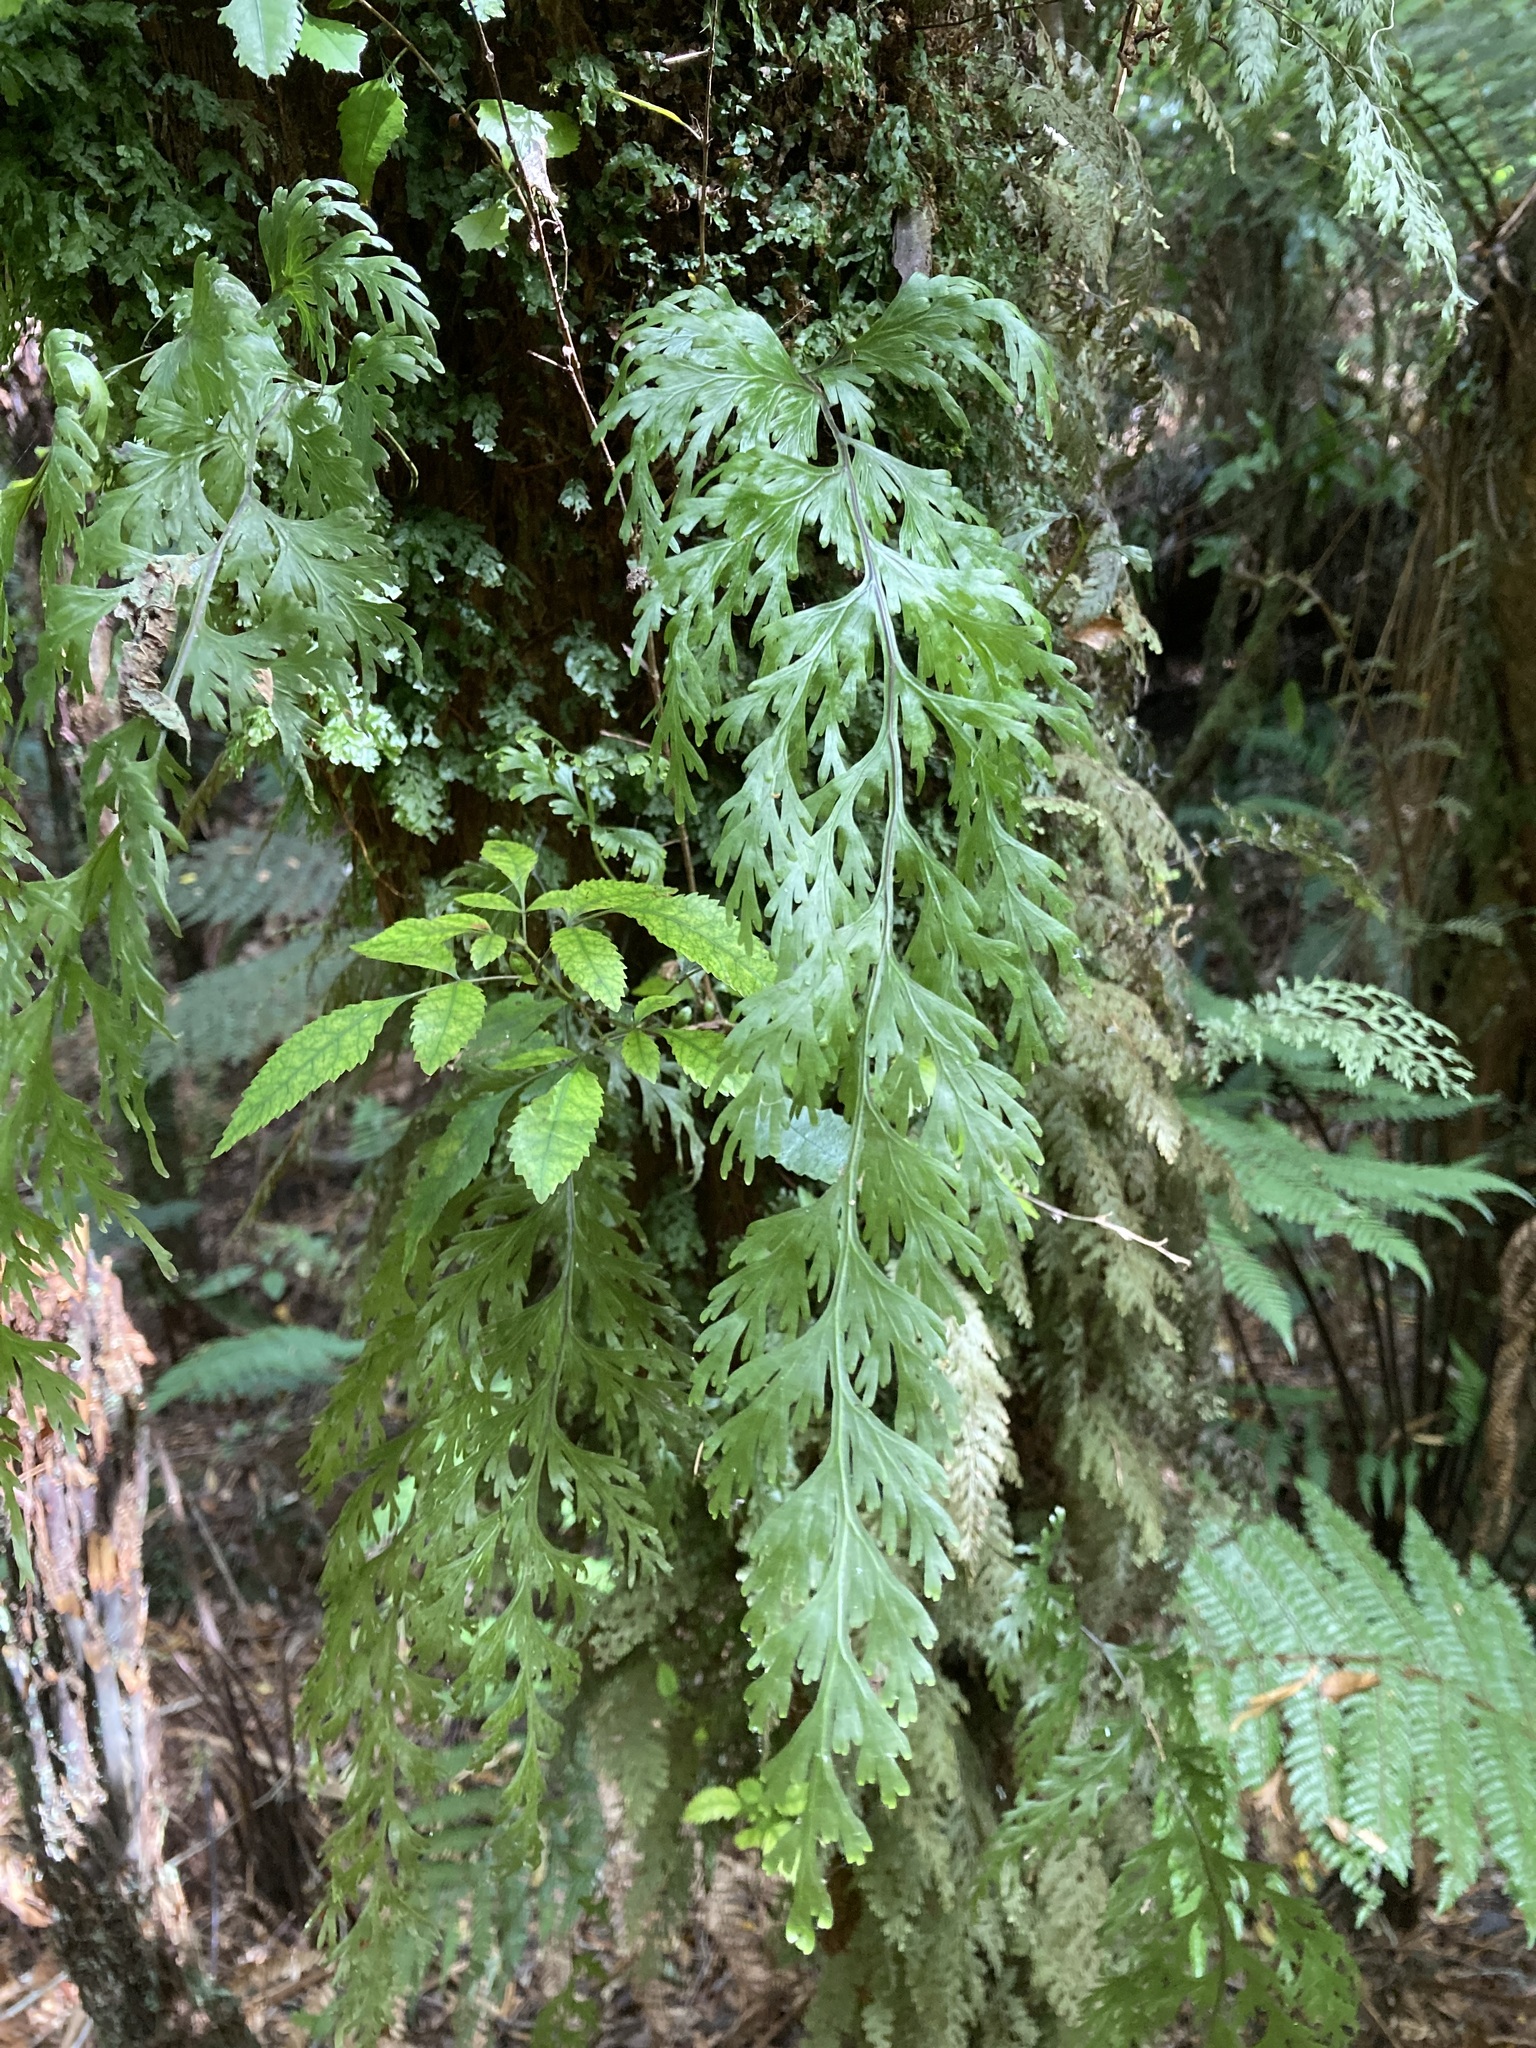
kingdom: Plantae
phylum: Tracheophyta
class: Polypodiopsida
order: Hymenophyllales
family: Hymenophyllaceae
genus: Hymenophyllum
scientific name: Hymenophyllum dilatatum
